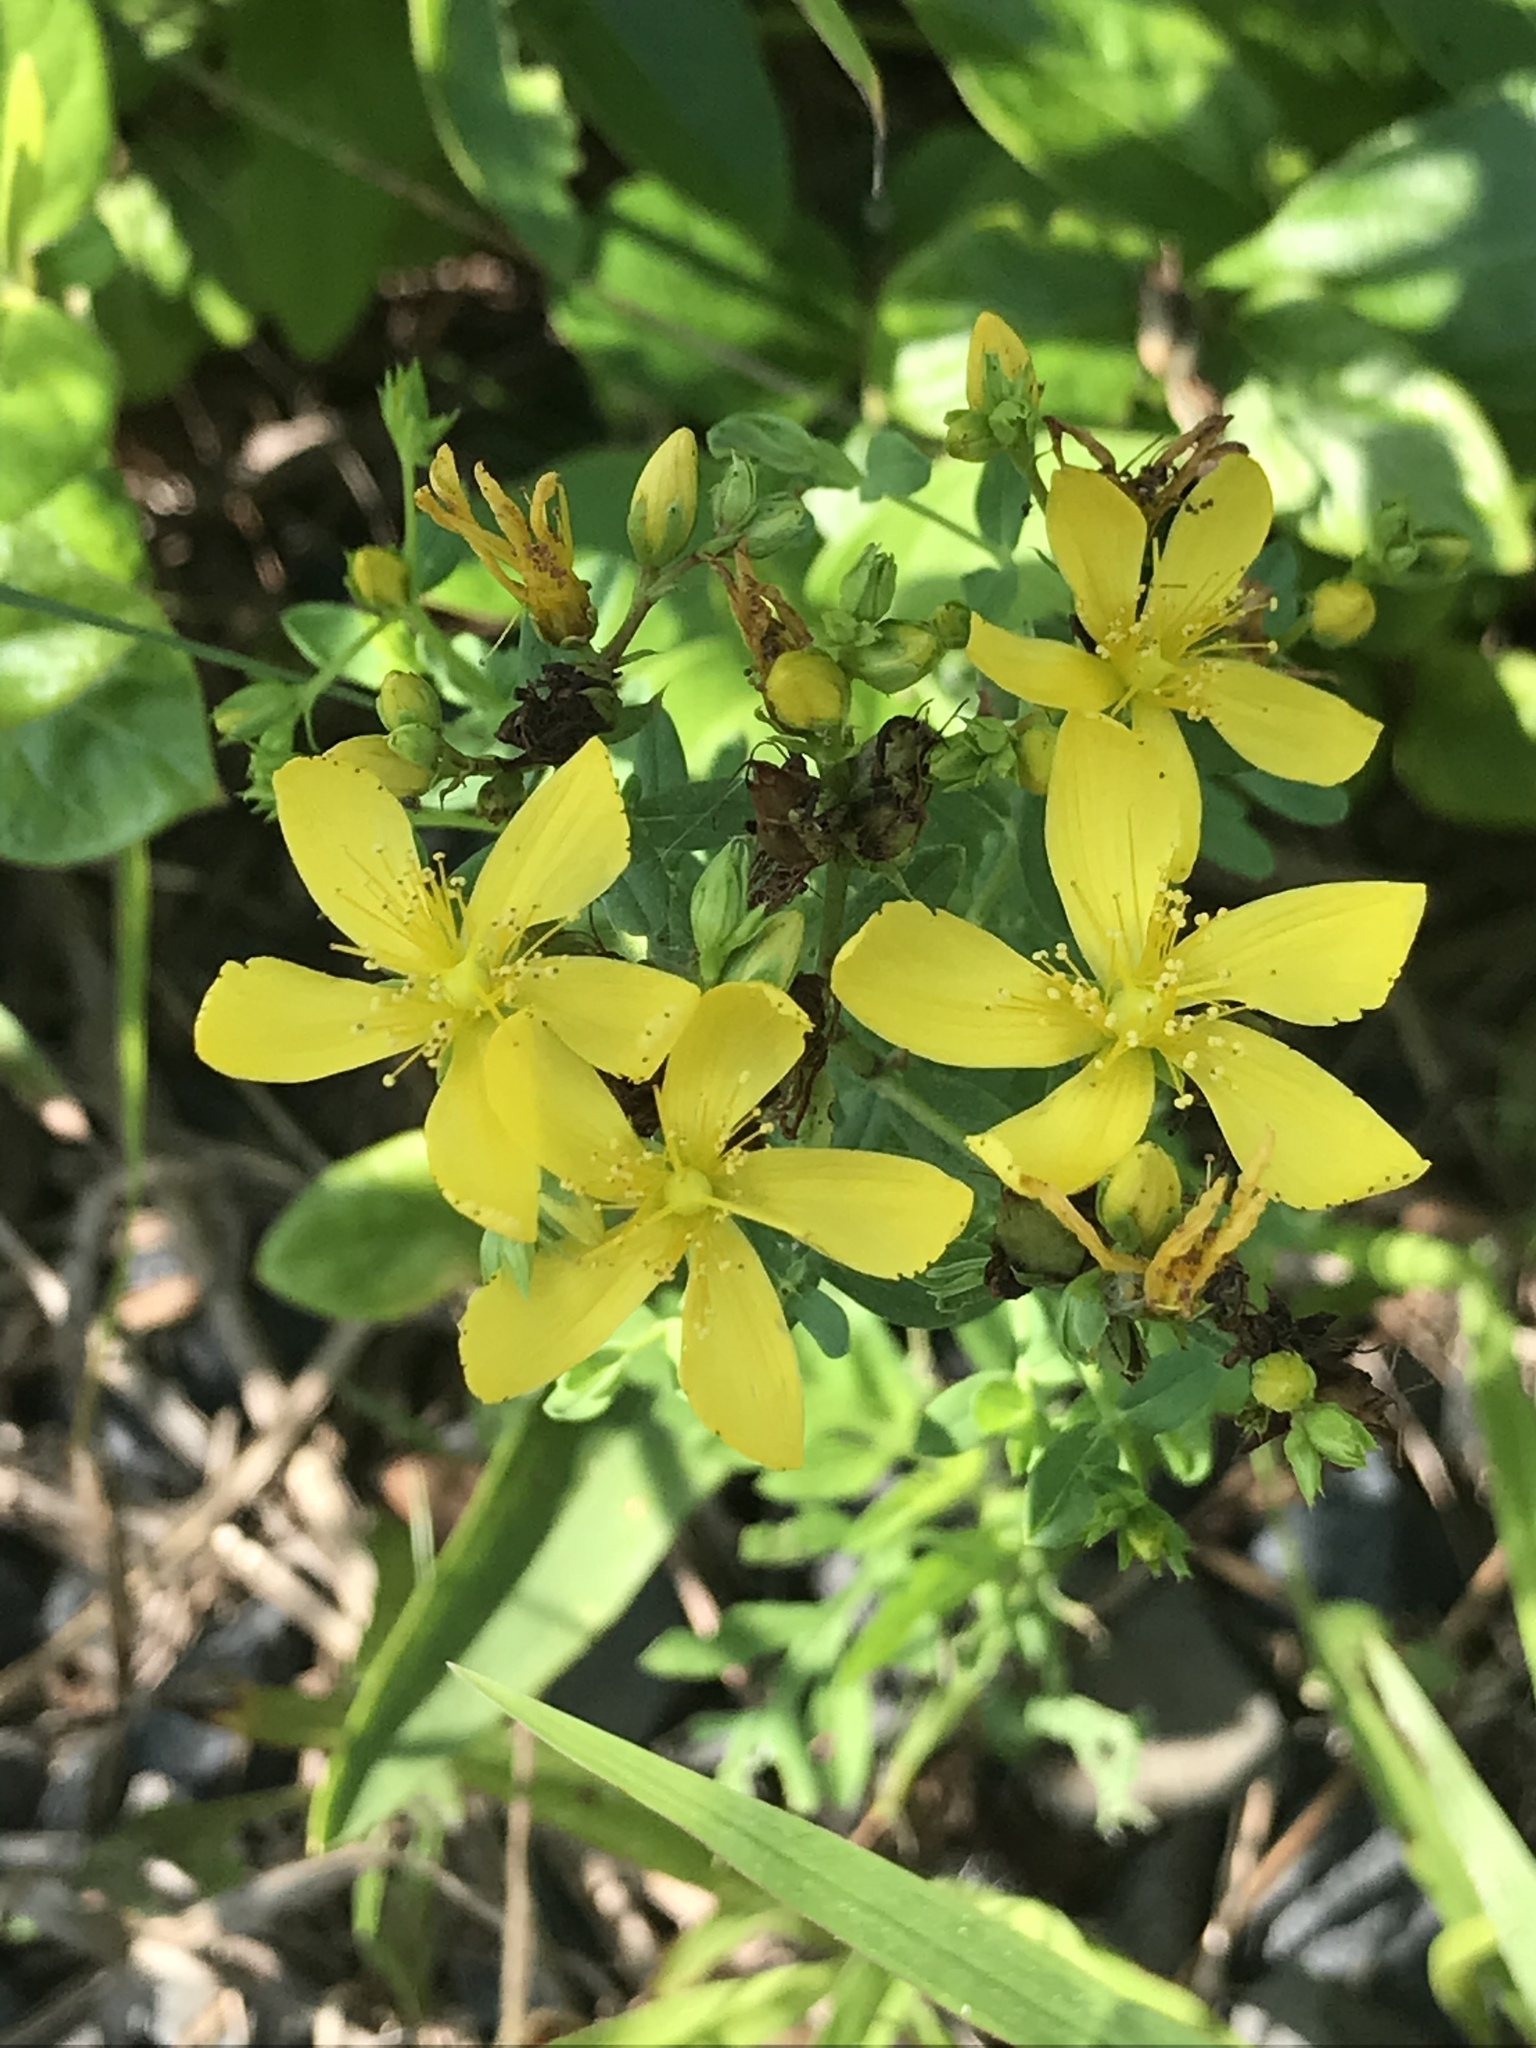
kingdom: Plantae
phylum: Tracheophyta
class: Magnoliopsida
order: Malpighiales
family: Hypericaceae
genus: Hypericum
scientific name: Hypericum perforatum
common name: Common st. johnswort
